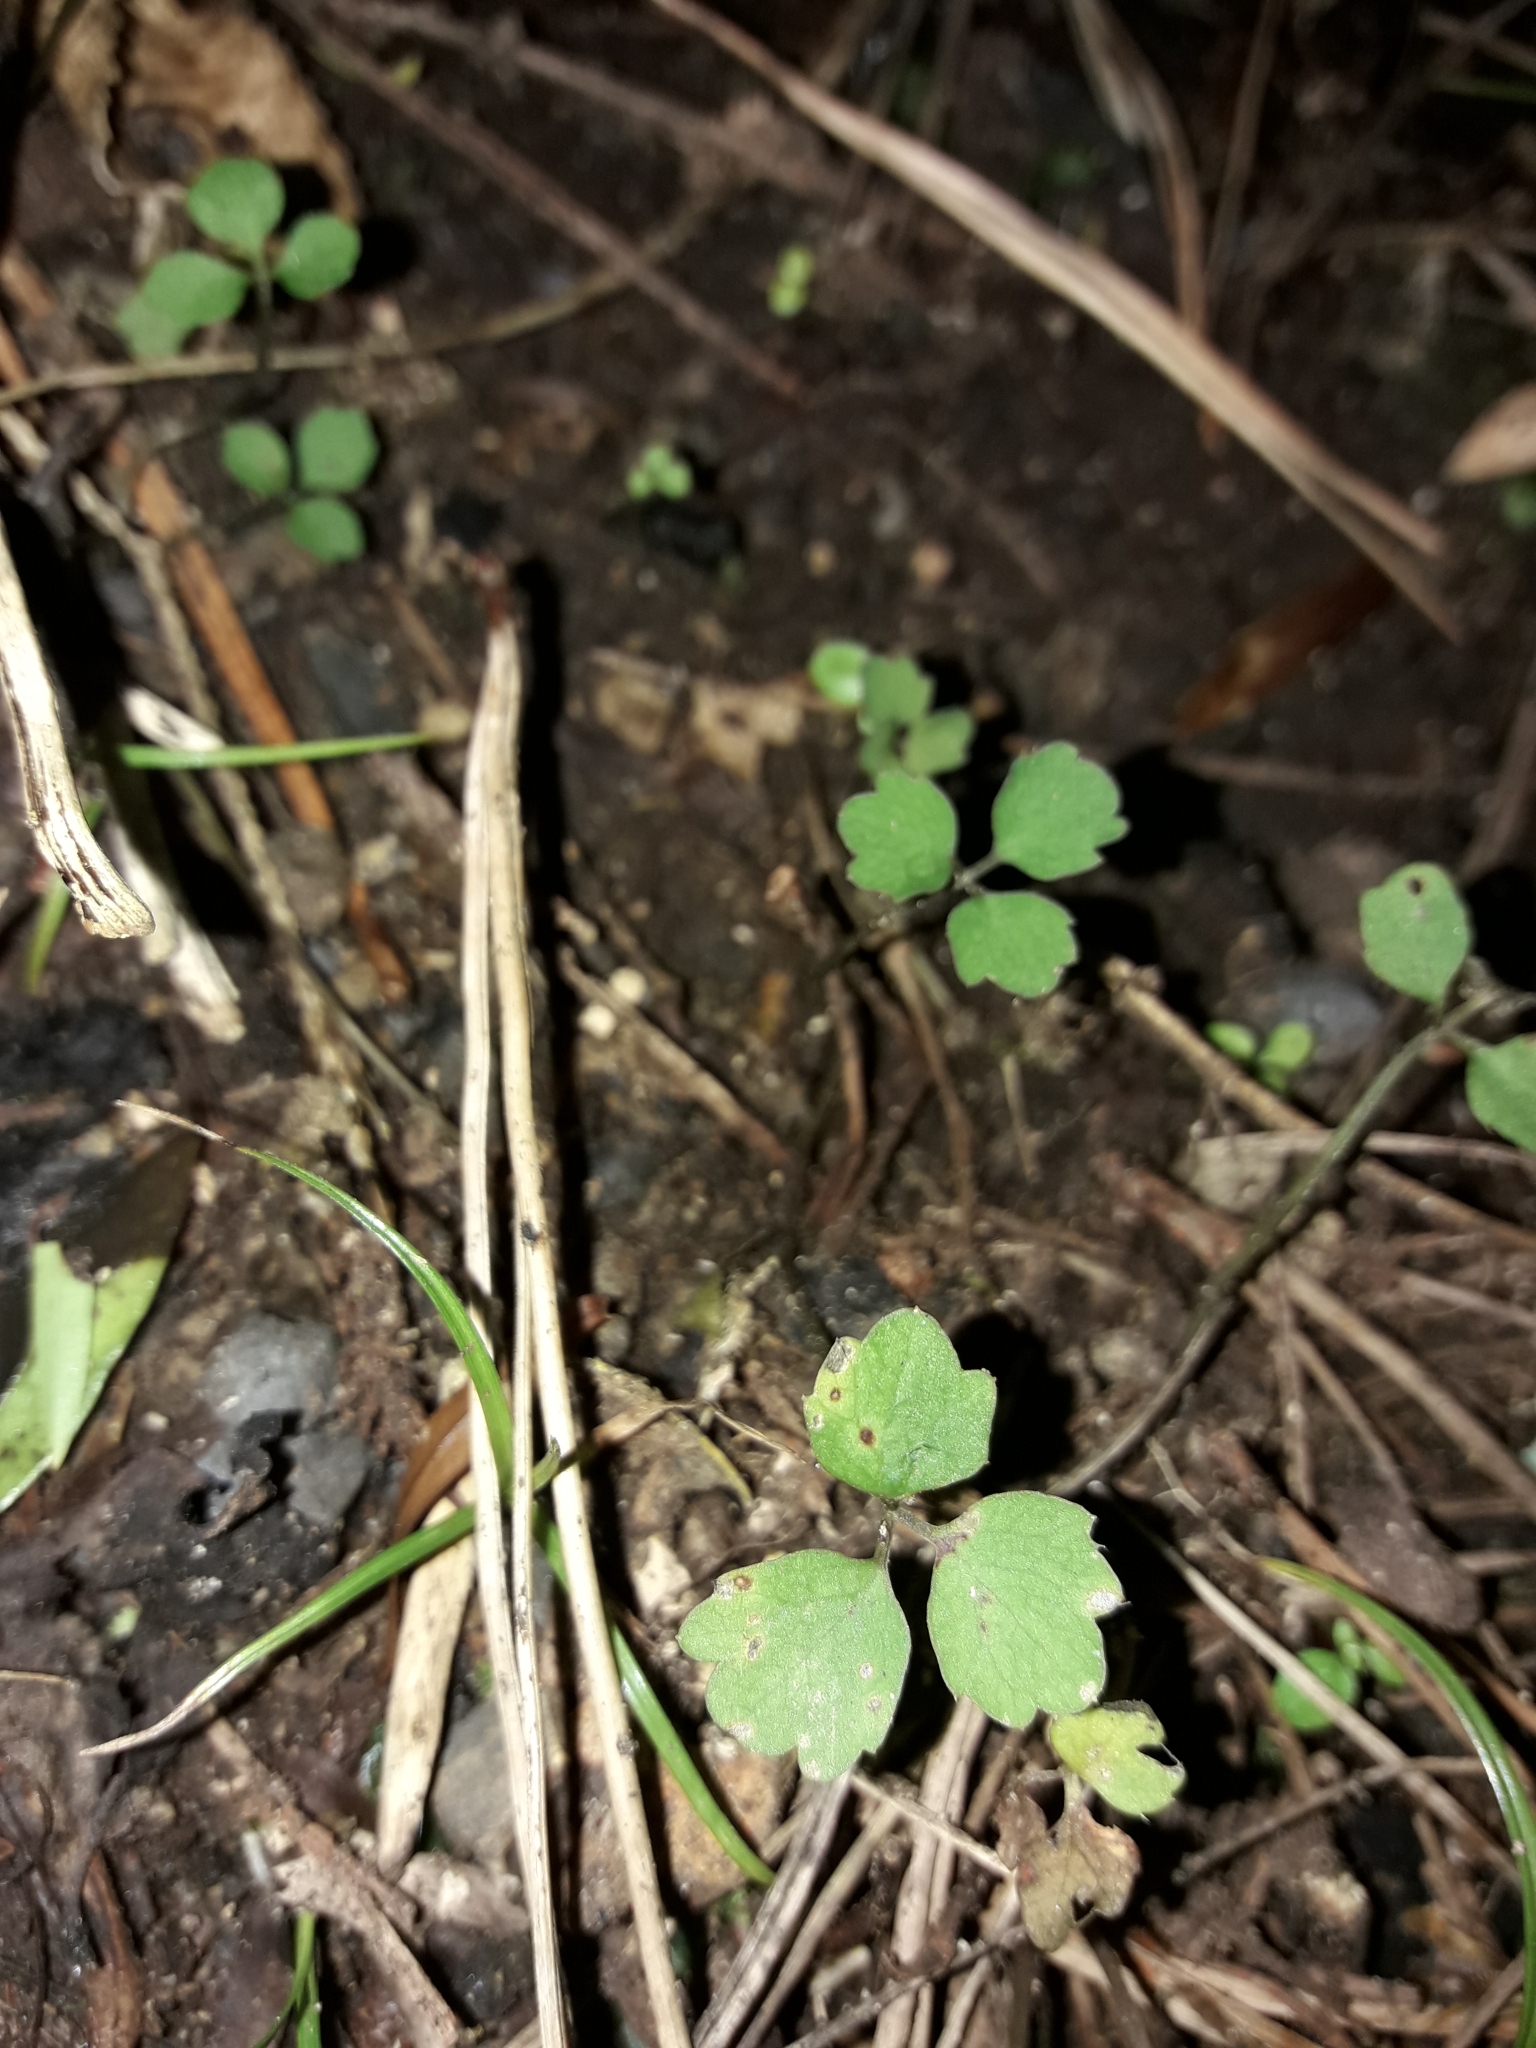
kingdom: Plantae
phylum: Tracheophyta
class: Magnoliopsida
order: Apiales
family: Apiaceae
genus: Azorella
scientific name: Azorella hookeri
